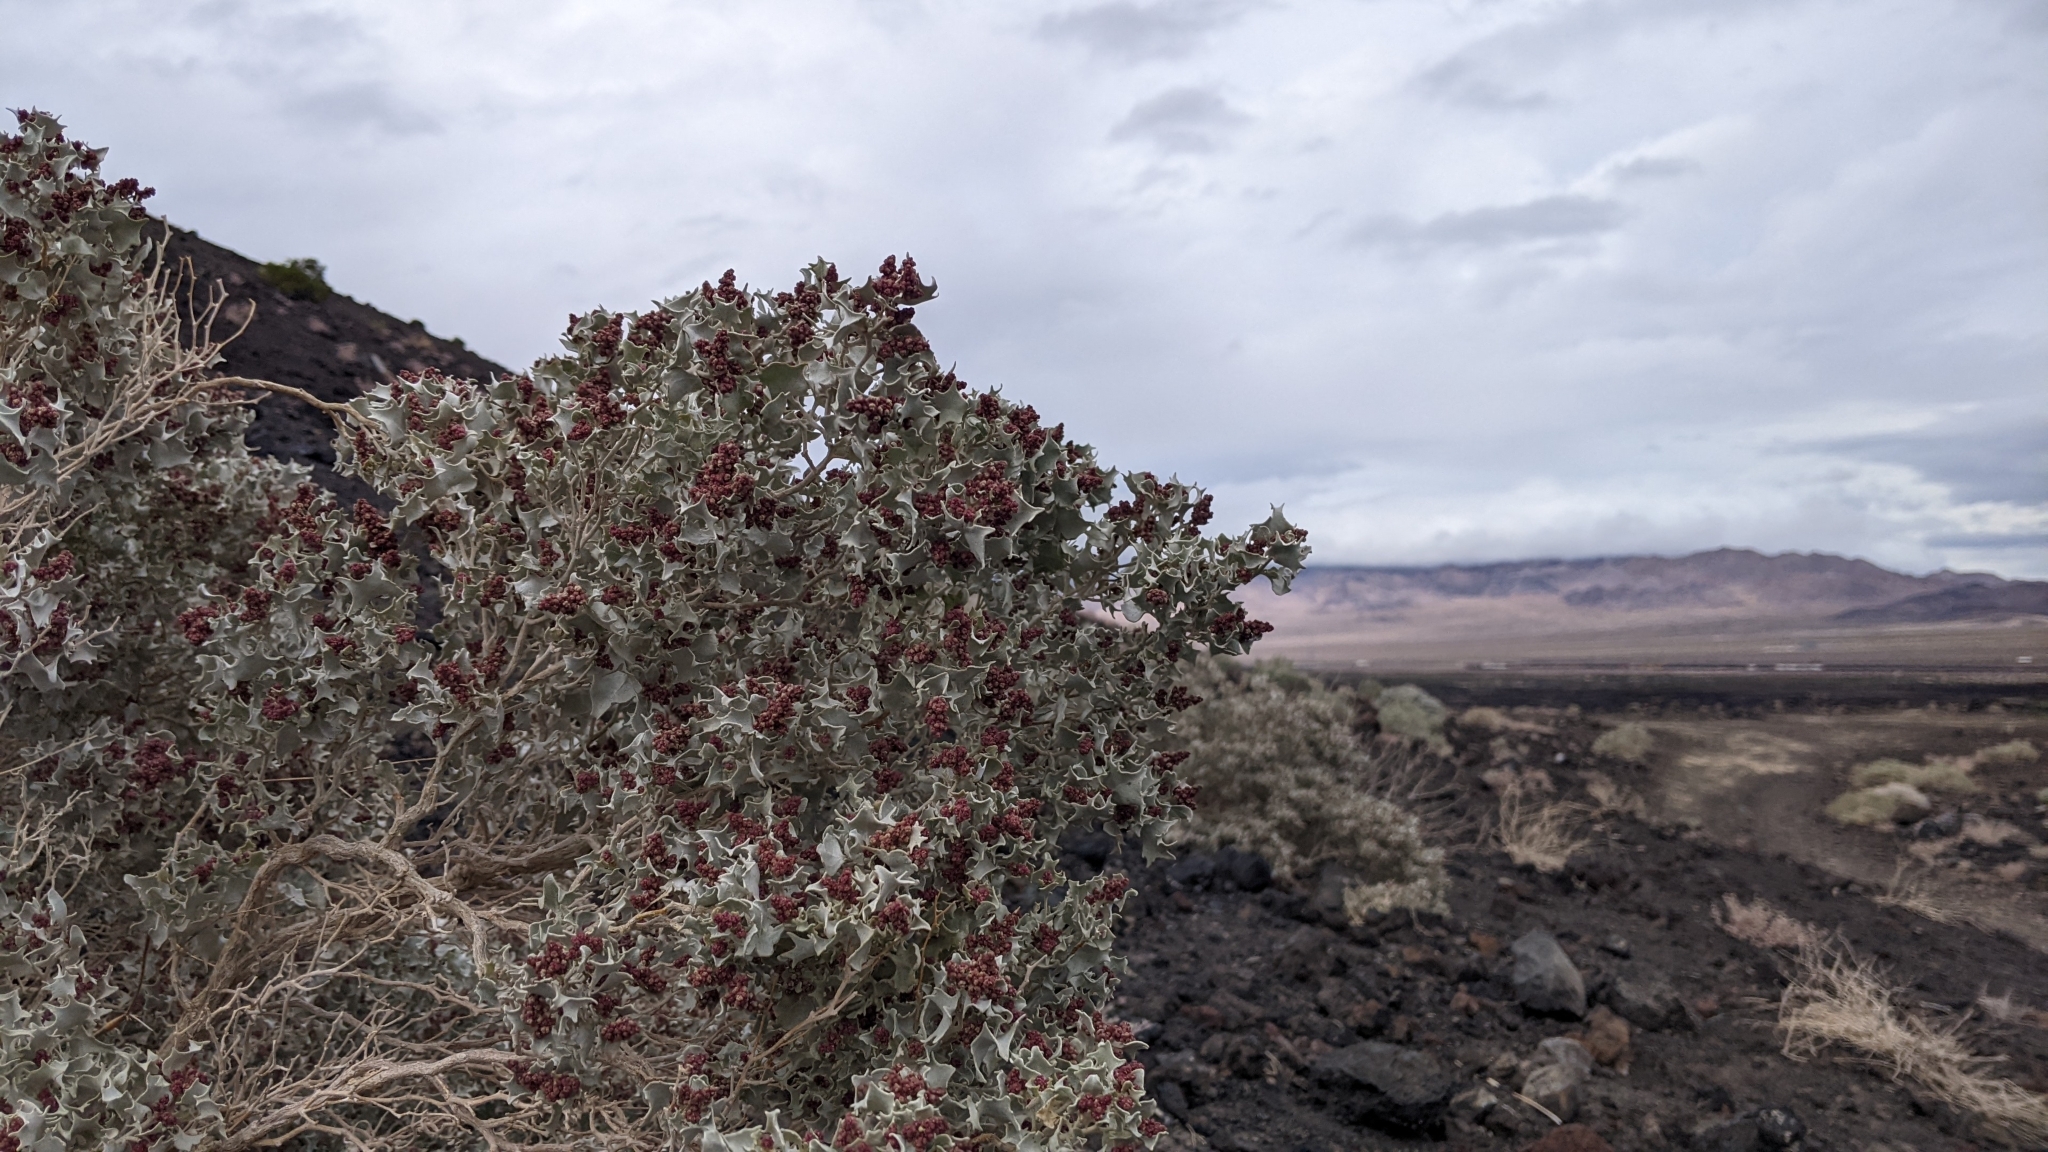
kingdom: Plantae
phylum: Tracheophyta
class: Magnoliopsida
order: Caryophyllales
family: Amaranthaceae
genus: Atriplex
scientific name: Atriplex hymenelytra
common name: Desert-holly
